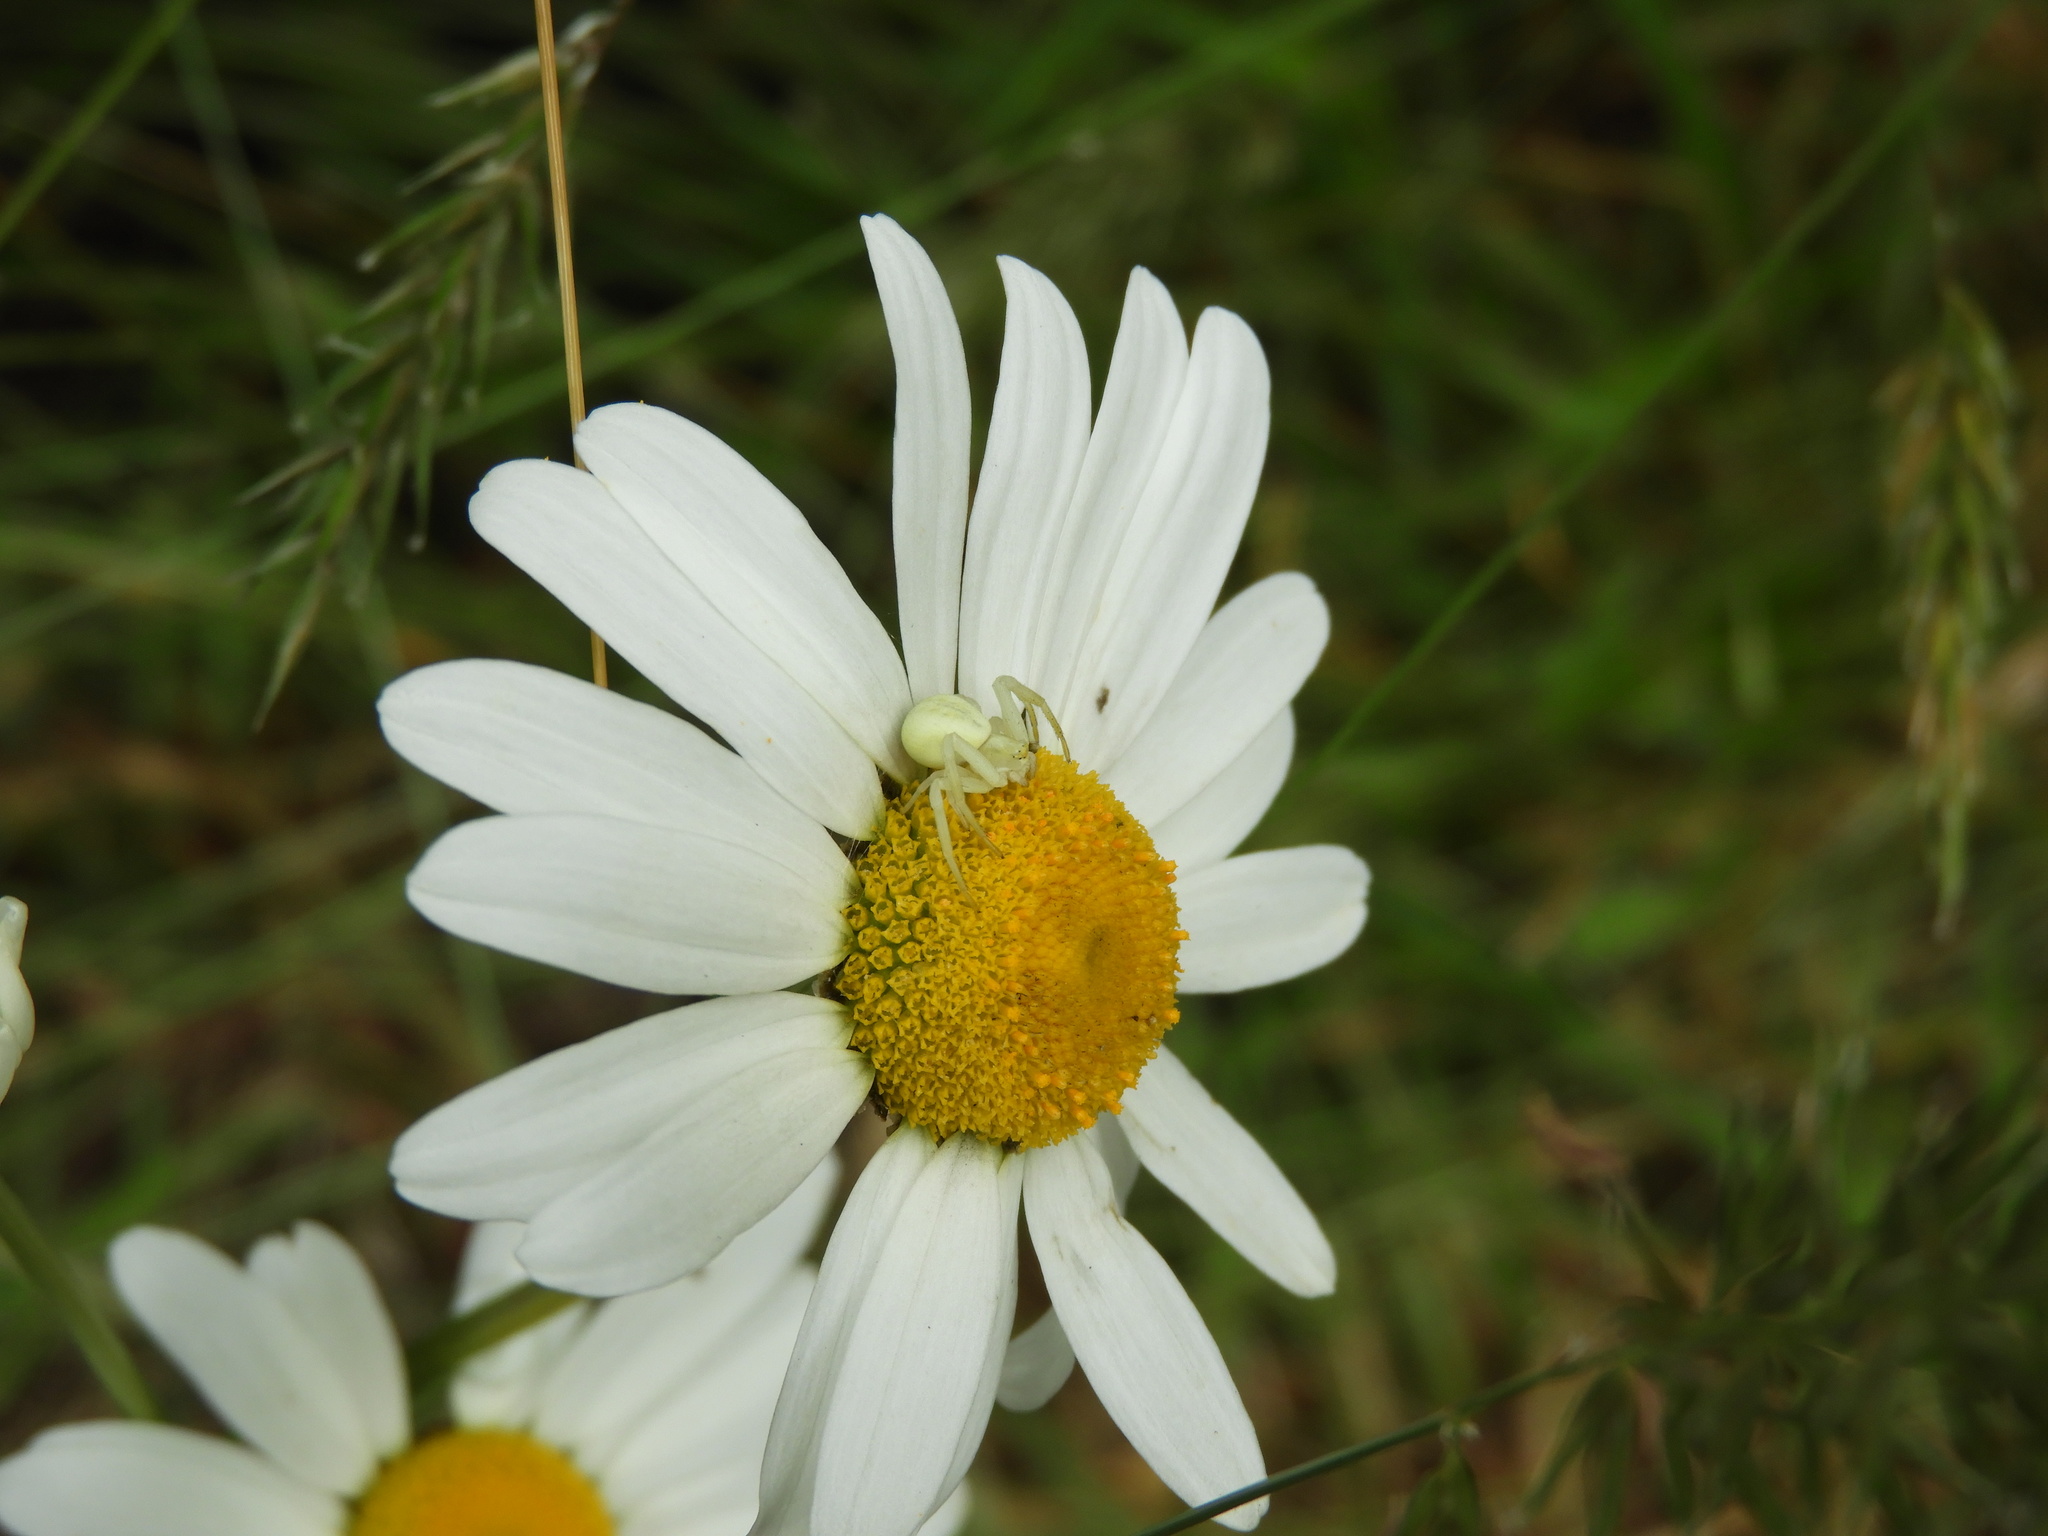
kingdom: Animalia
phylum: Arthropoda
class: Arachnida
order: Araneae
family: Thomisidae
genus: Misumena
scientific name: Misumena vatia
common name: Goldenrod crab spider
